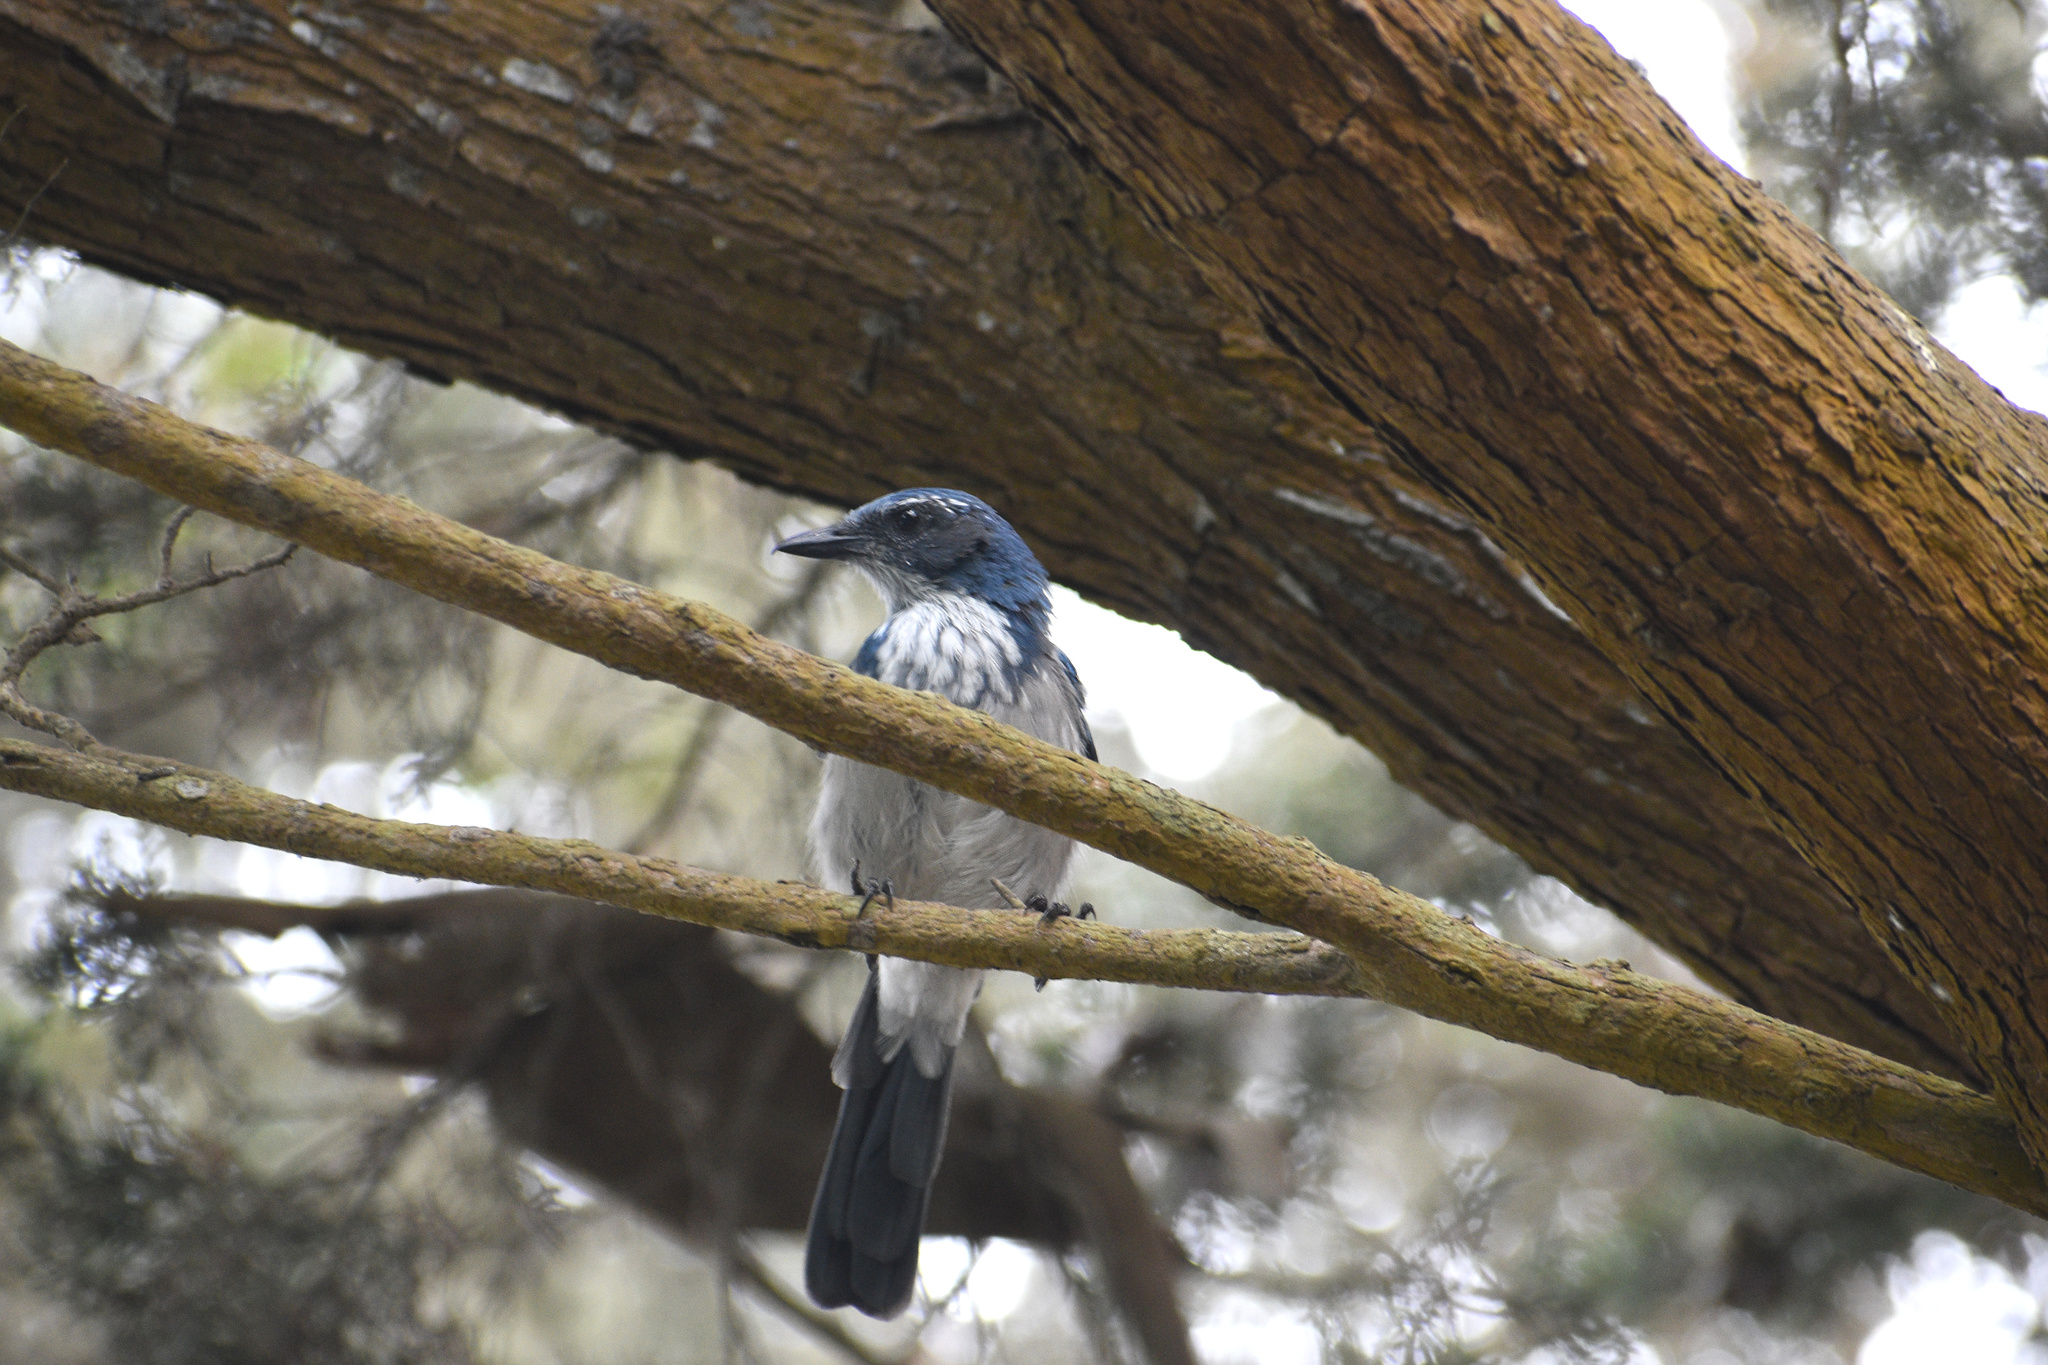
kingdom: Animalia
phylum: Chordata
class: Aves
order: Passeriformes
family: Corvidae
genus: Aphelocoma
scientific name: Aphelocoma californica
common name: California scrub-jay
